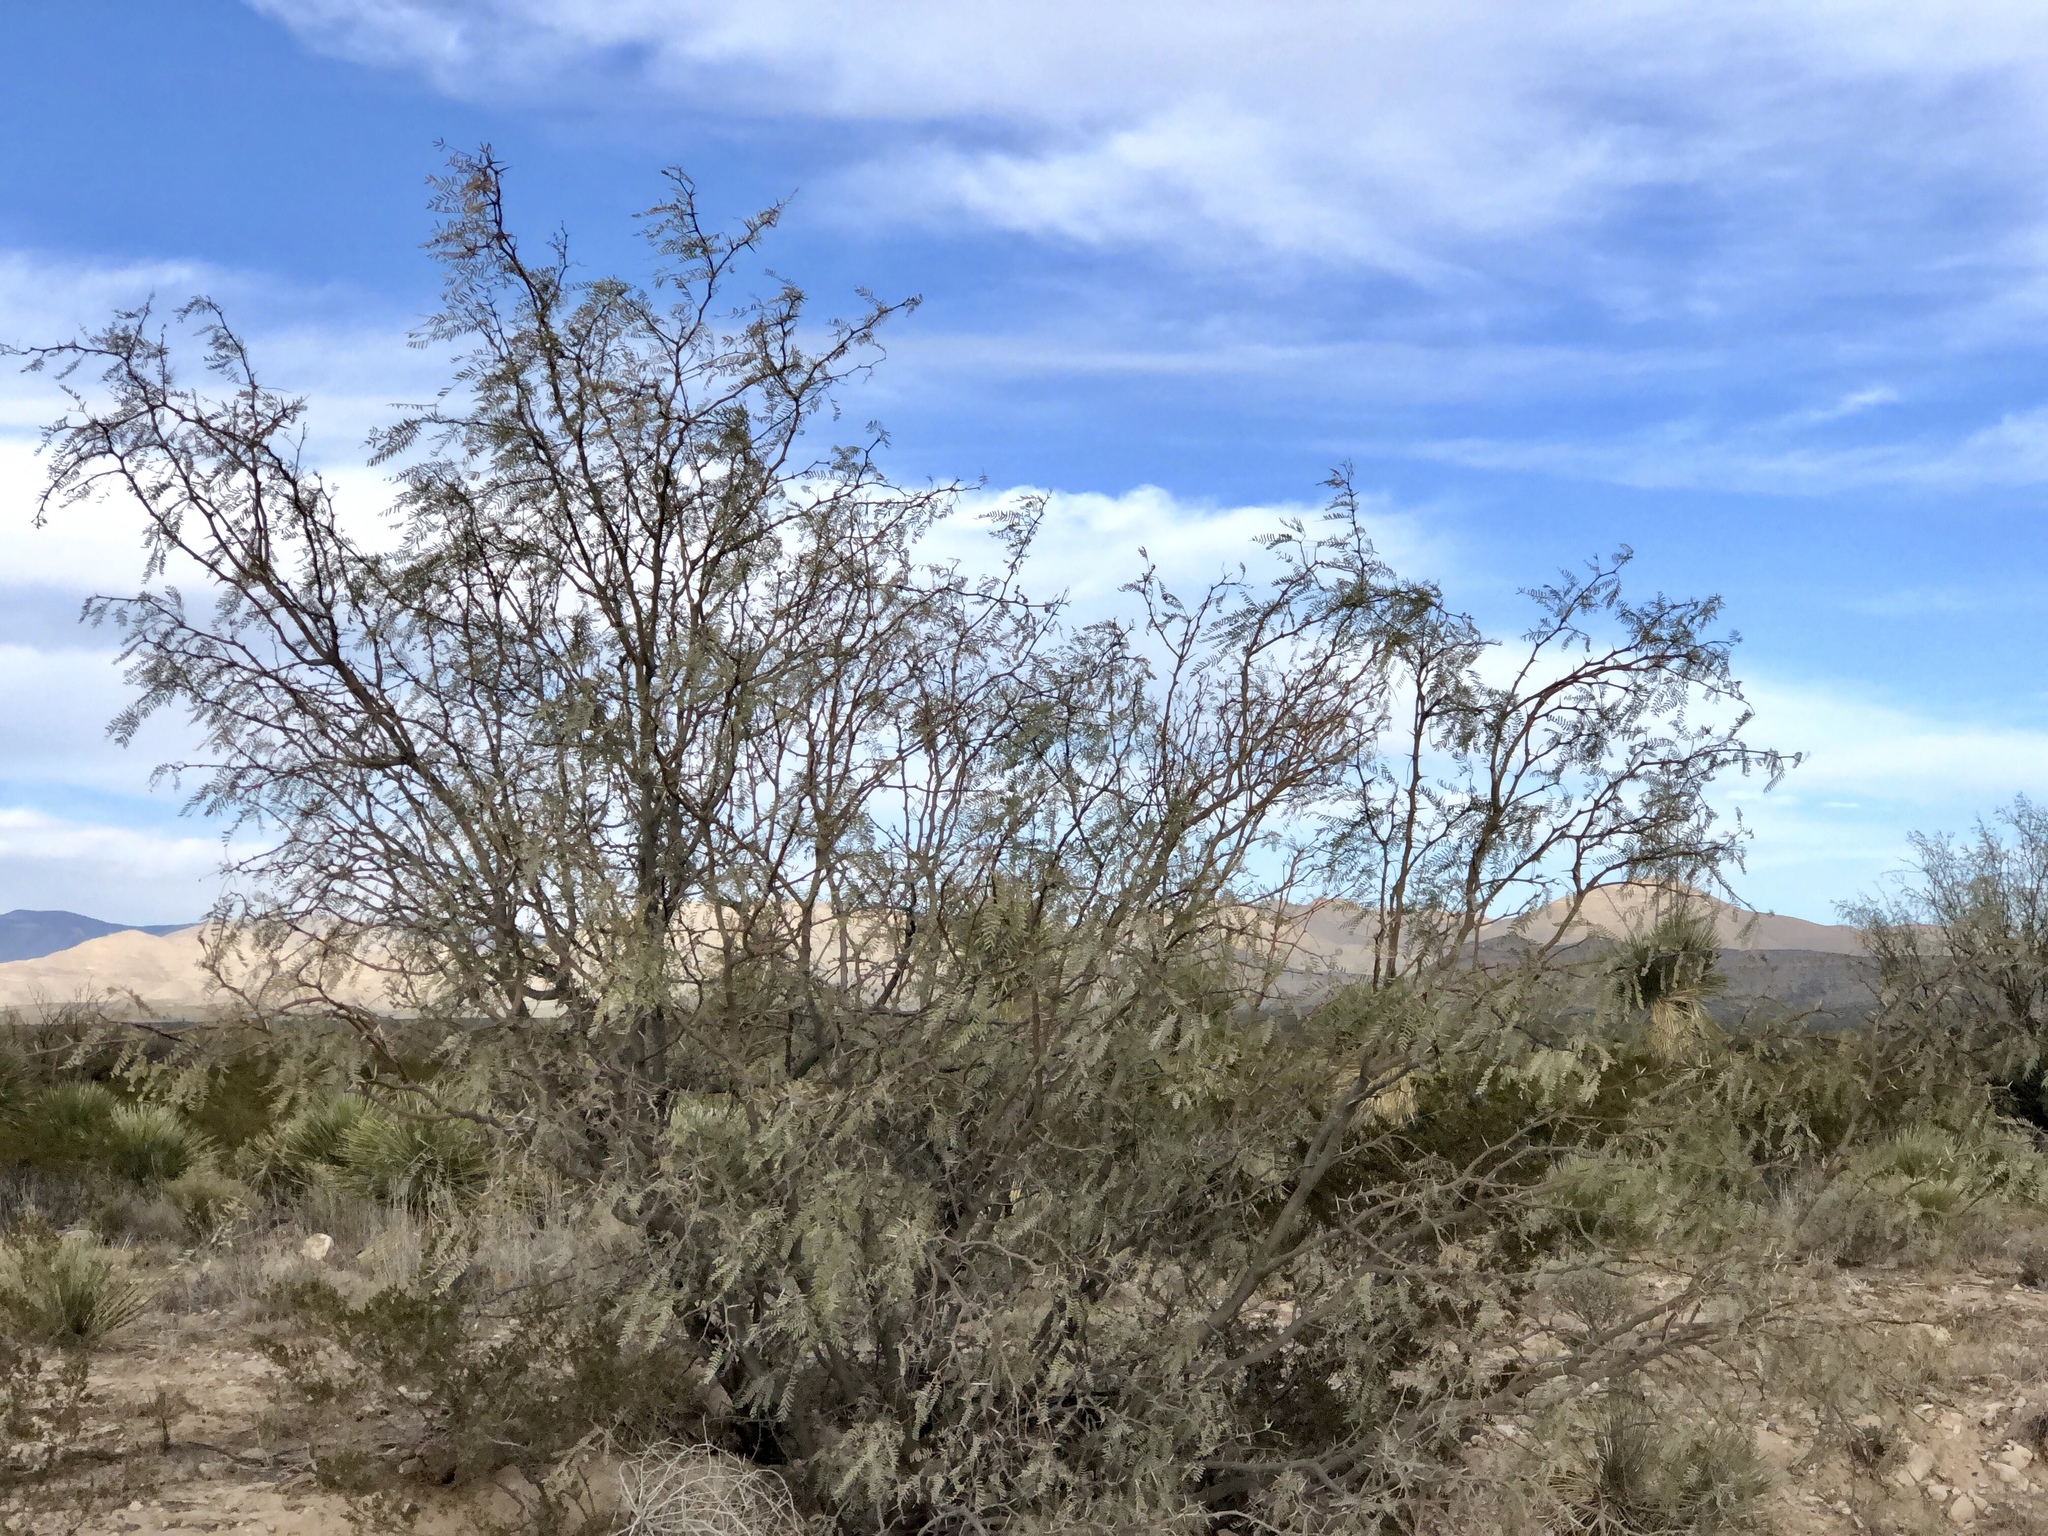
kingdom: Plantae
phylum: Tracheophyta
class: Magnoliopsida
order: Fabales
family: Fabaceae
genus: Prosopis
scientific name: Prosopis glandulosa
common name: Honey mesquite
